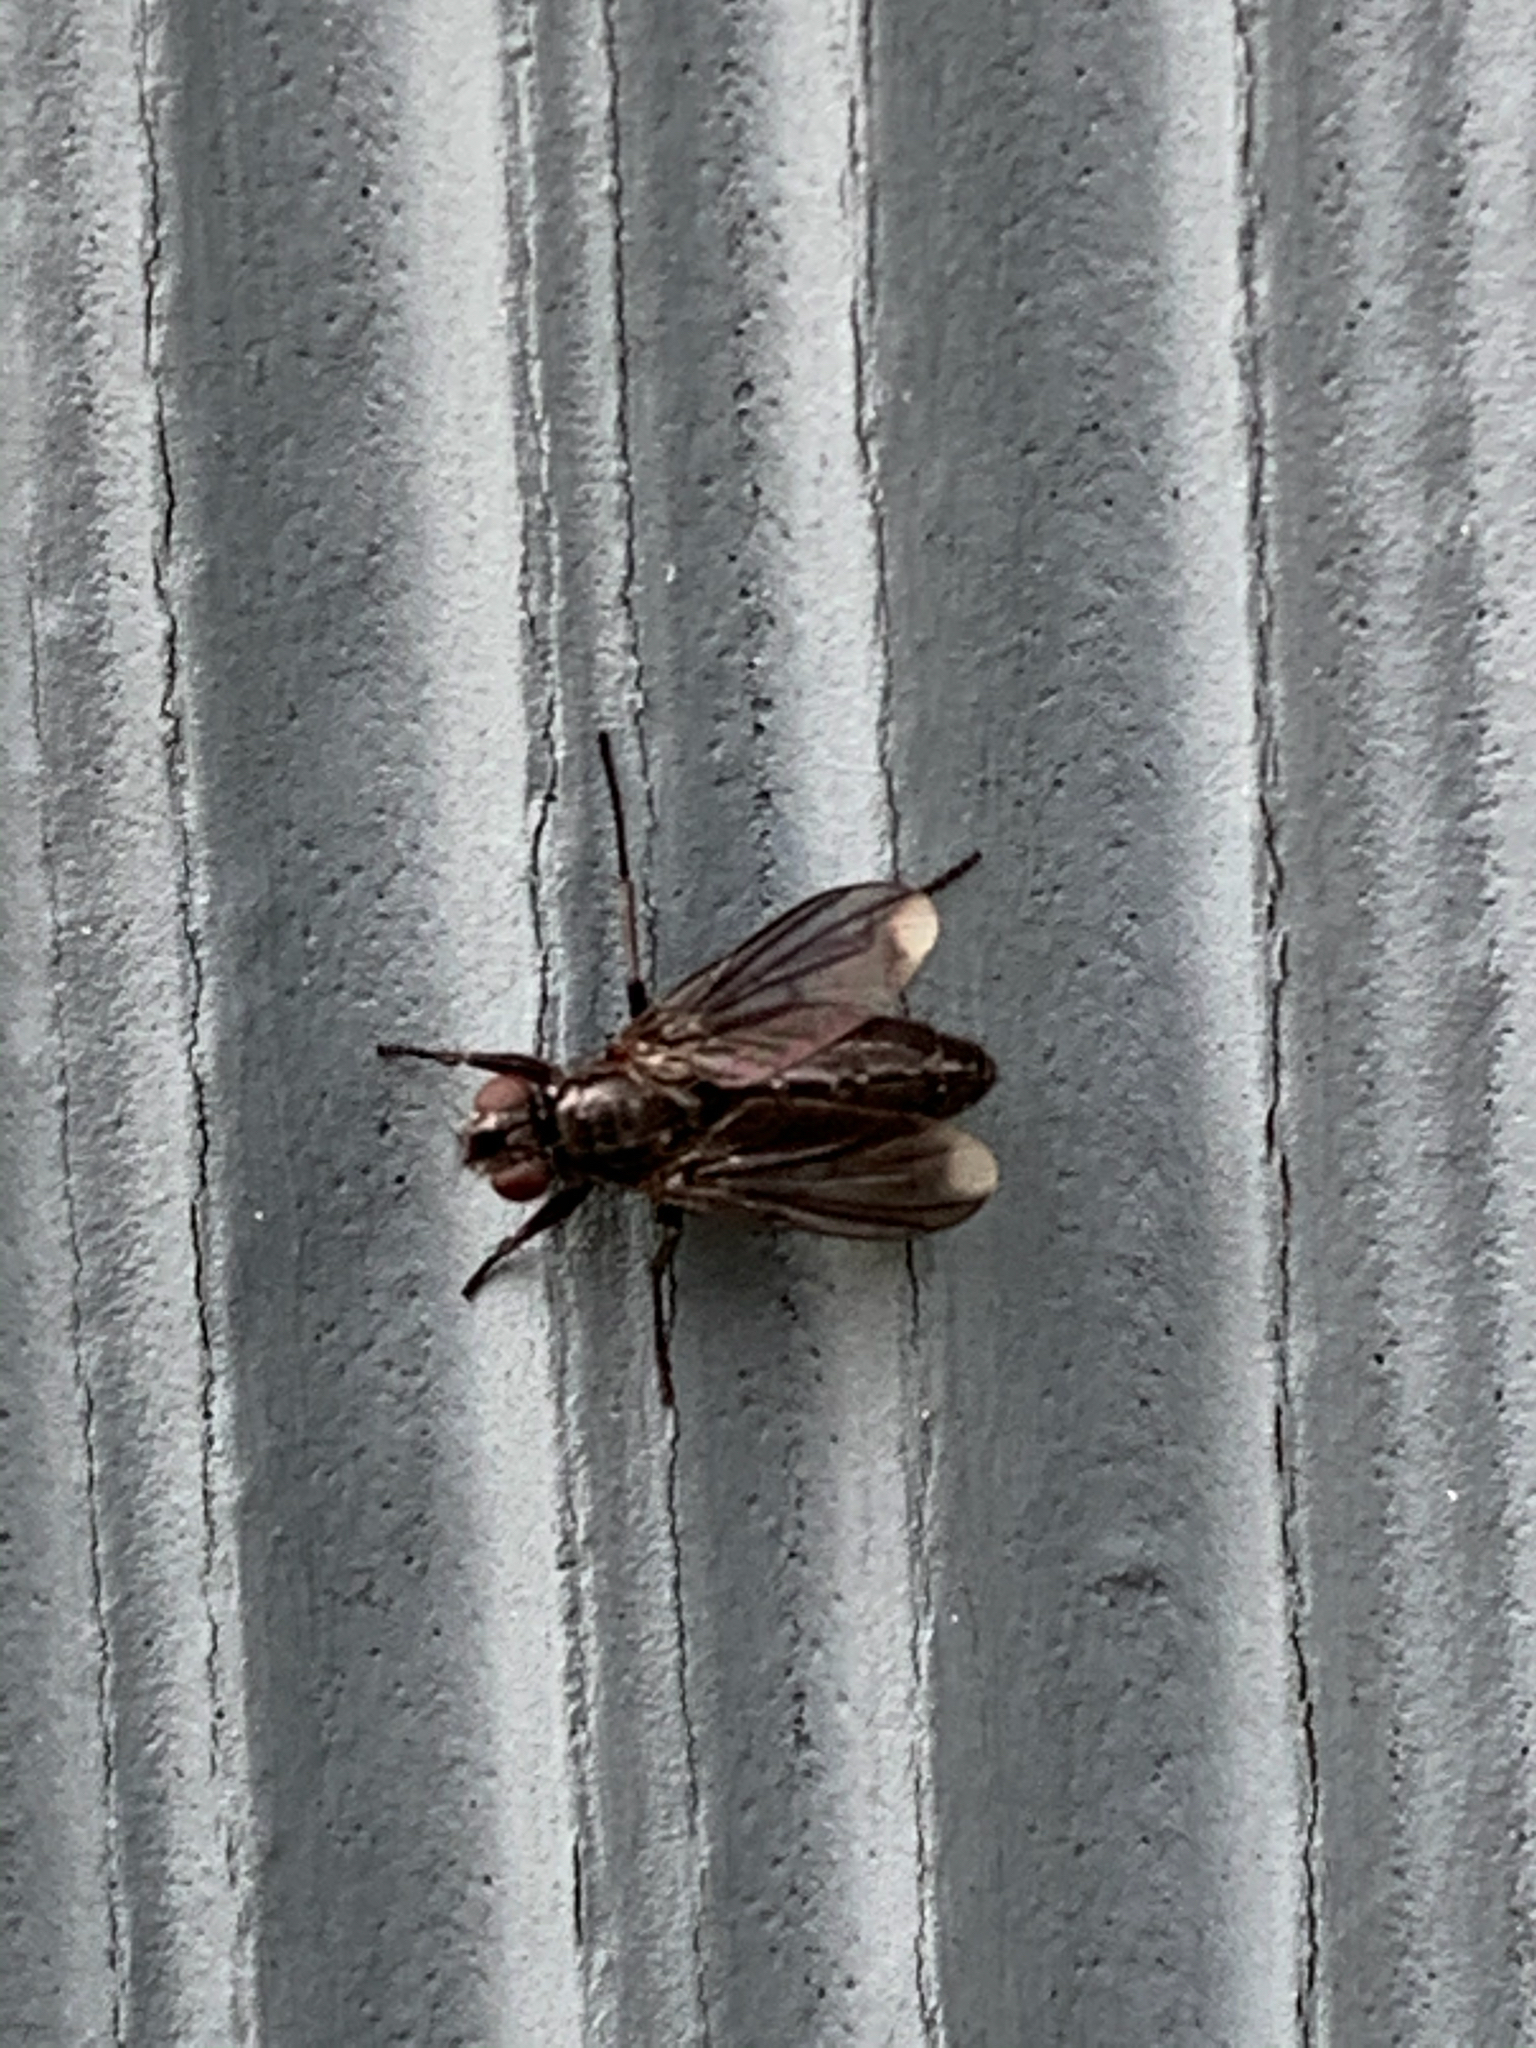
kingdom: Animalia
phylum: Arthropoda
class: Insecta
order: Diptera
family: Calliphoridae
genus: Melanophora
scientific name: Melanophora roralis
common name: Smoky-winged woodlouse-fly
